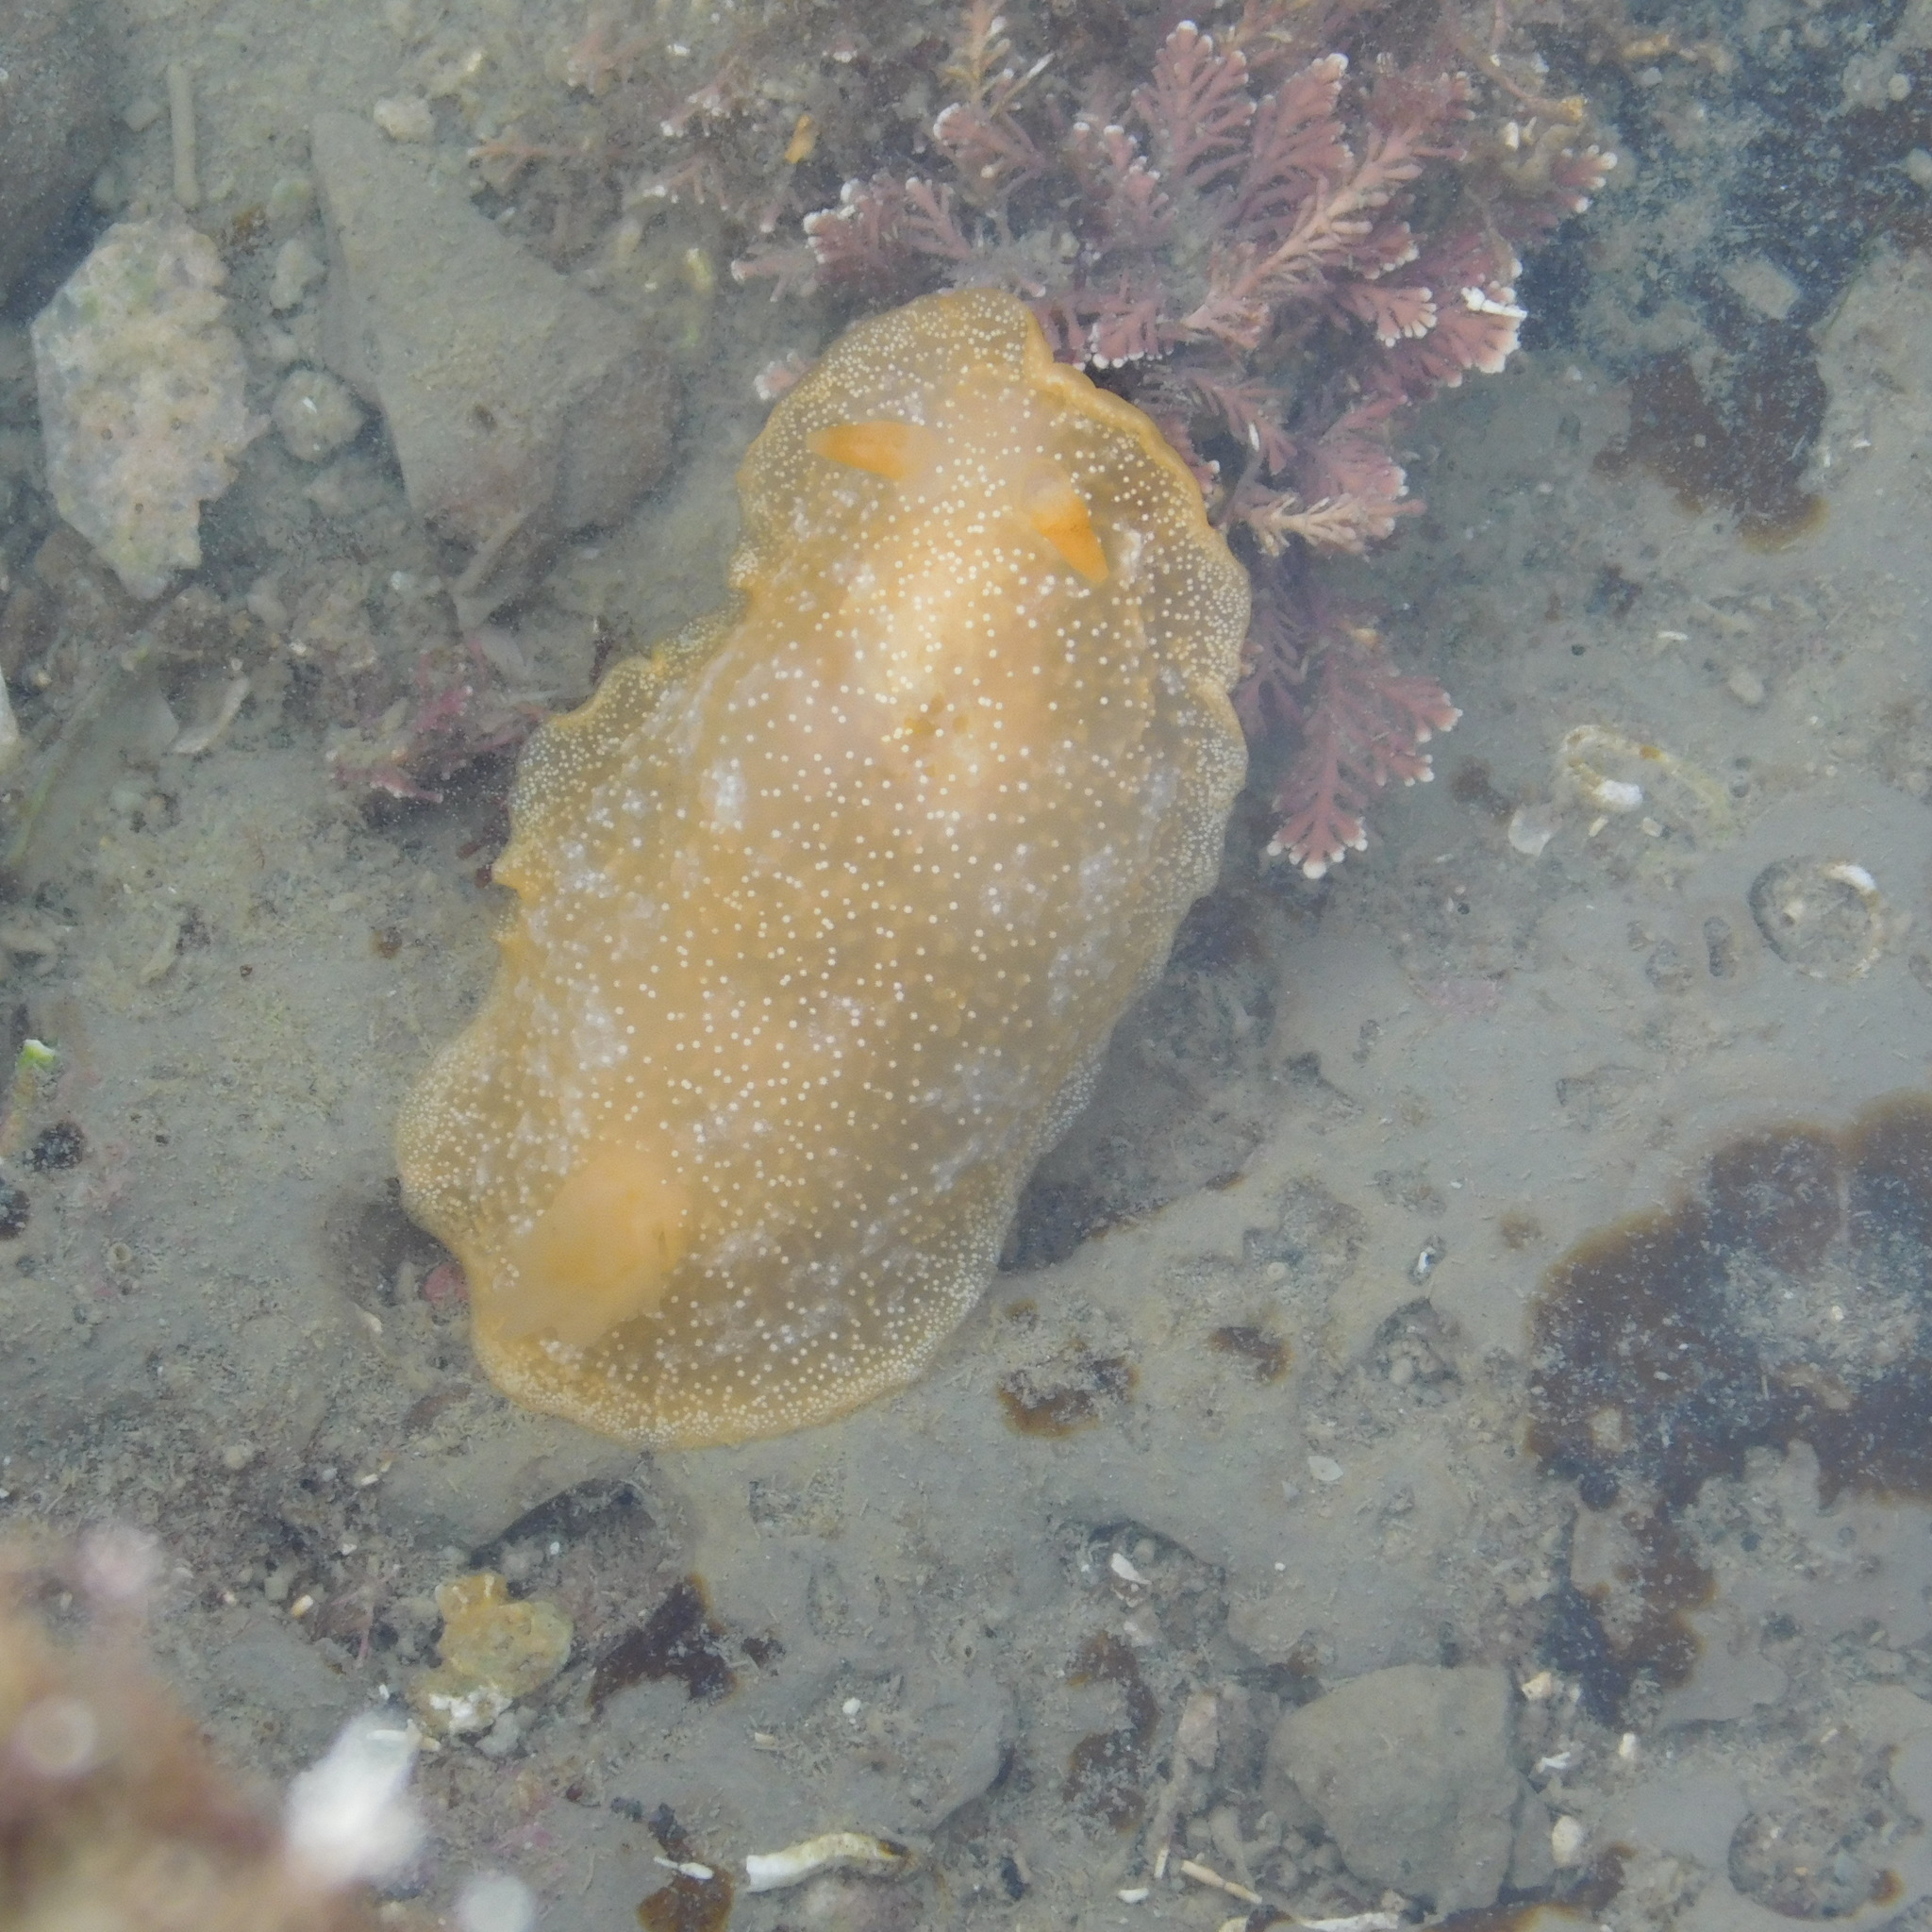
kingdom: Animalia
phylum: Mollusca
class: Gastropoda
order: Nudibranchia
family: Dendrodorididae
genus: Dendrodoris
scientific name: Dendrodoris citrina
